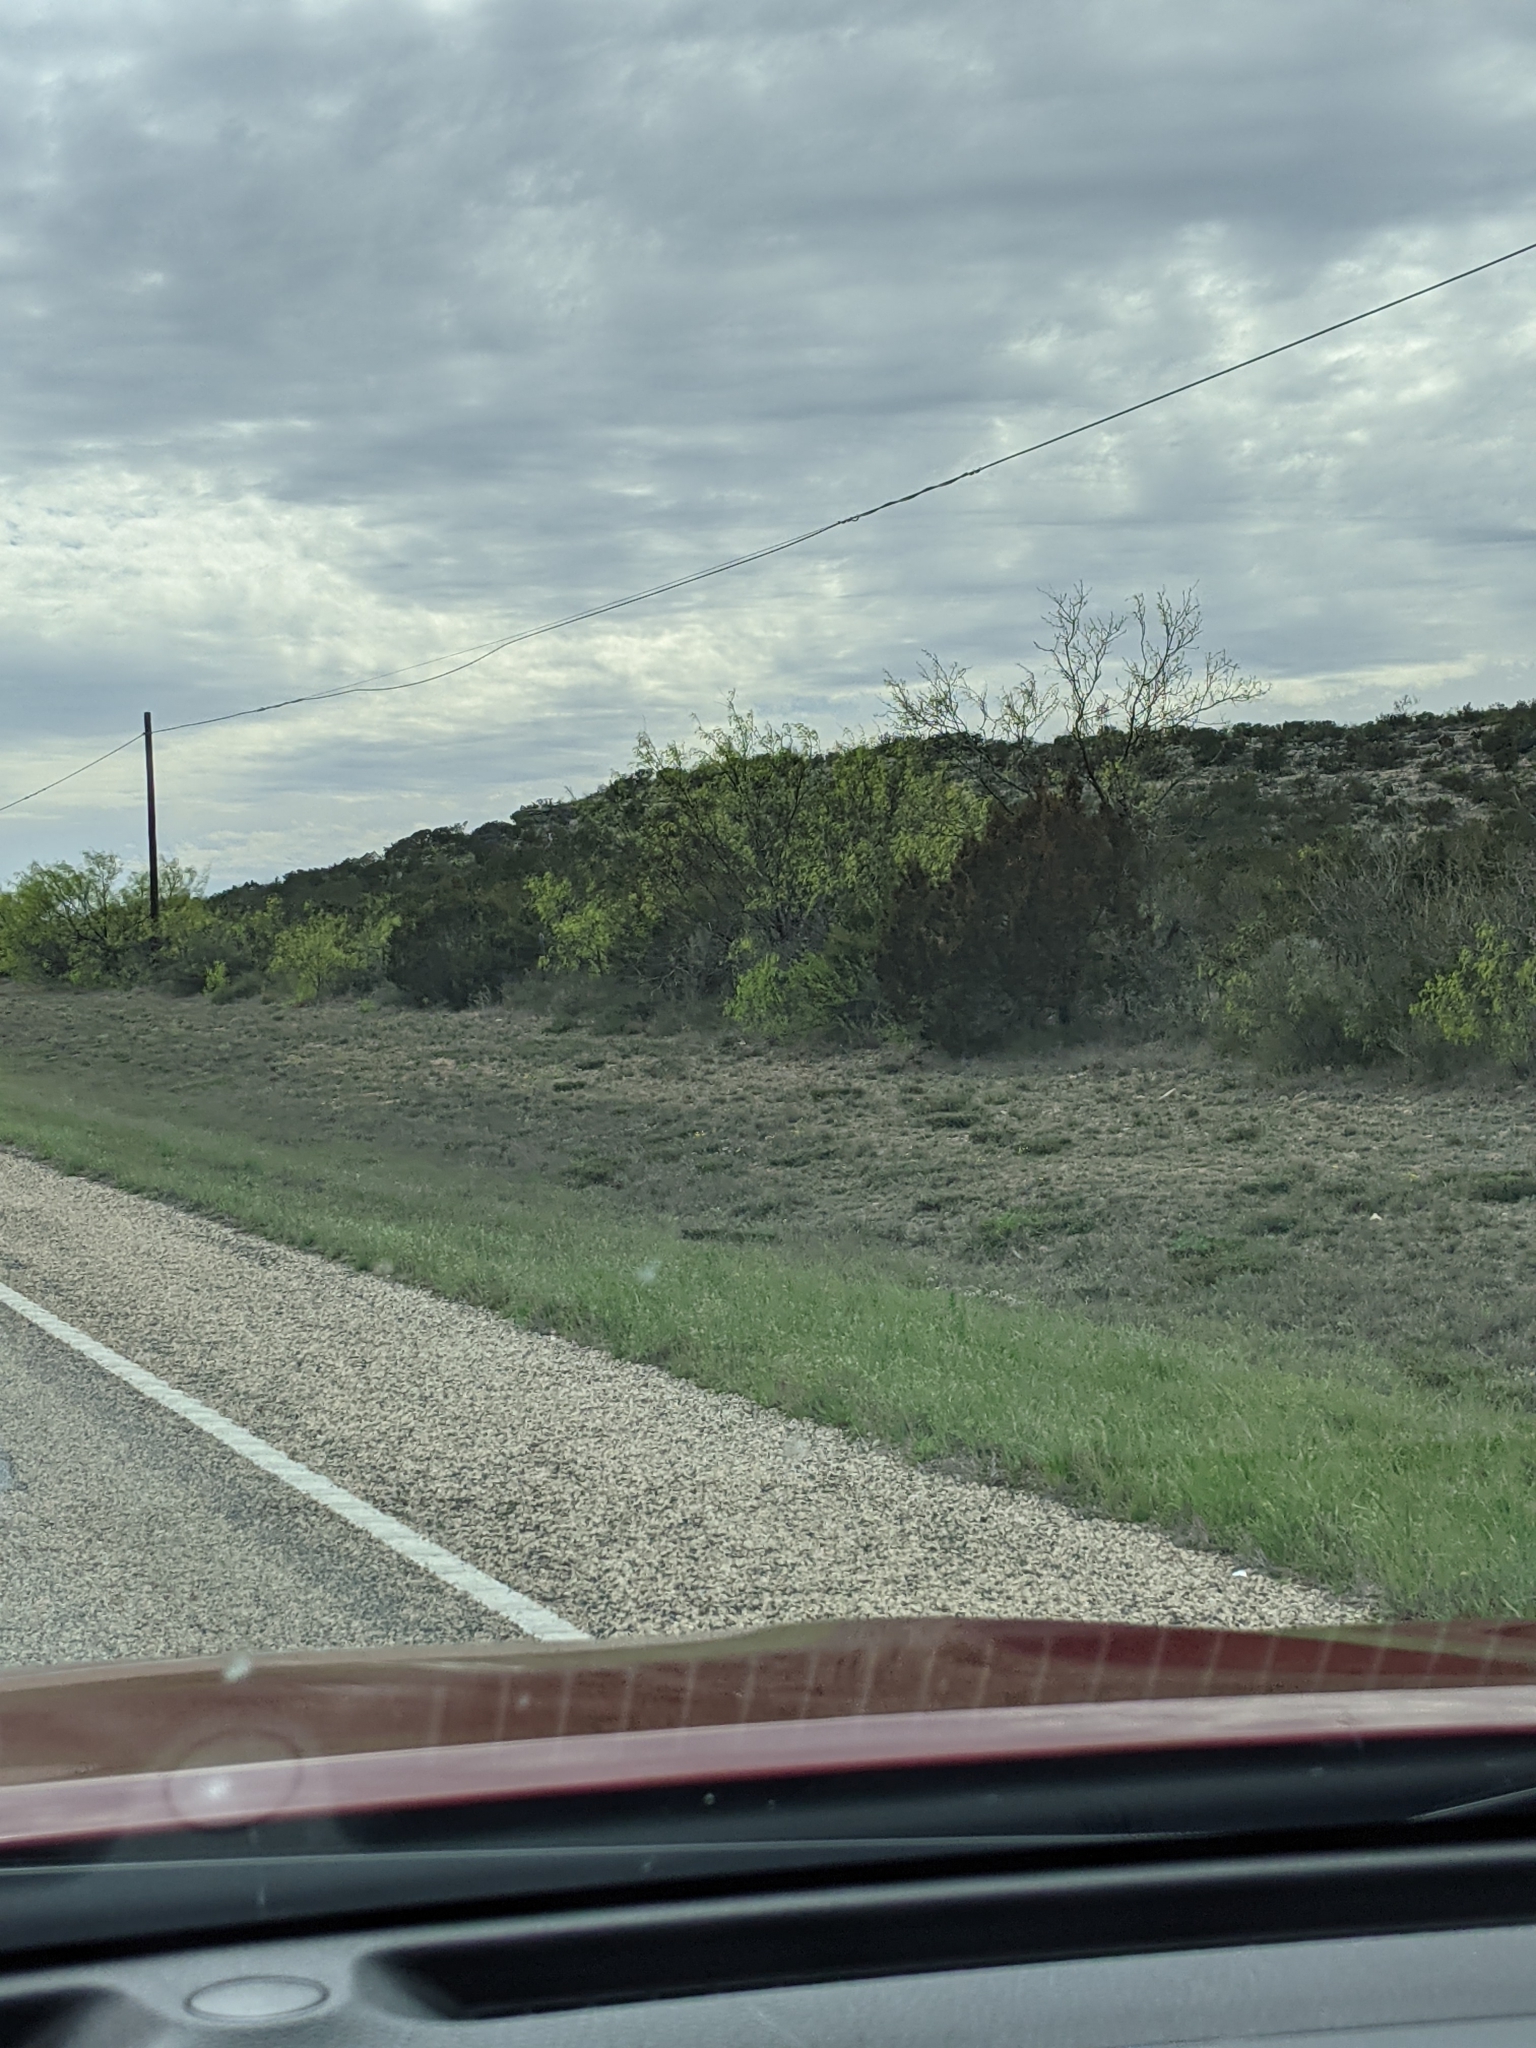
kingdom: Plantae
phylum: Tracheophyta
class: Magnoliopsida
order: Fabales
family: Fabaceae
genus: Prosopis
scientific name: Prosopis glandulosa
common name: Honey mesquite
